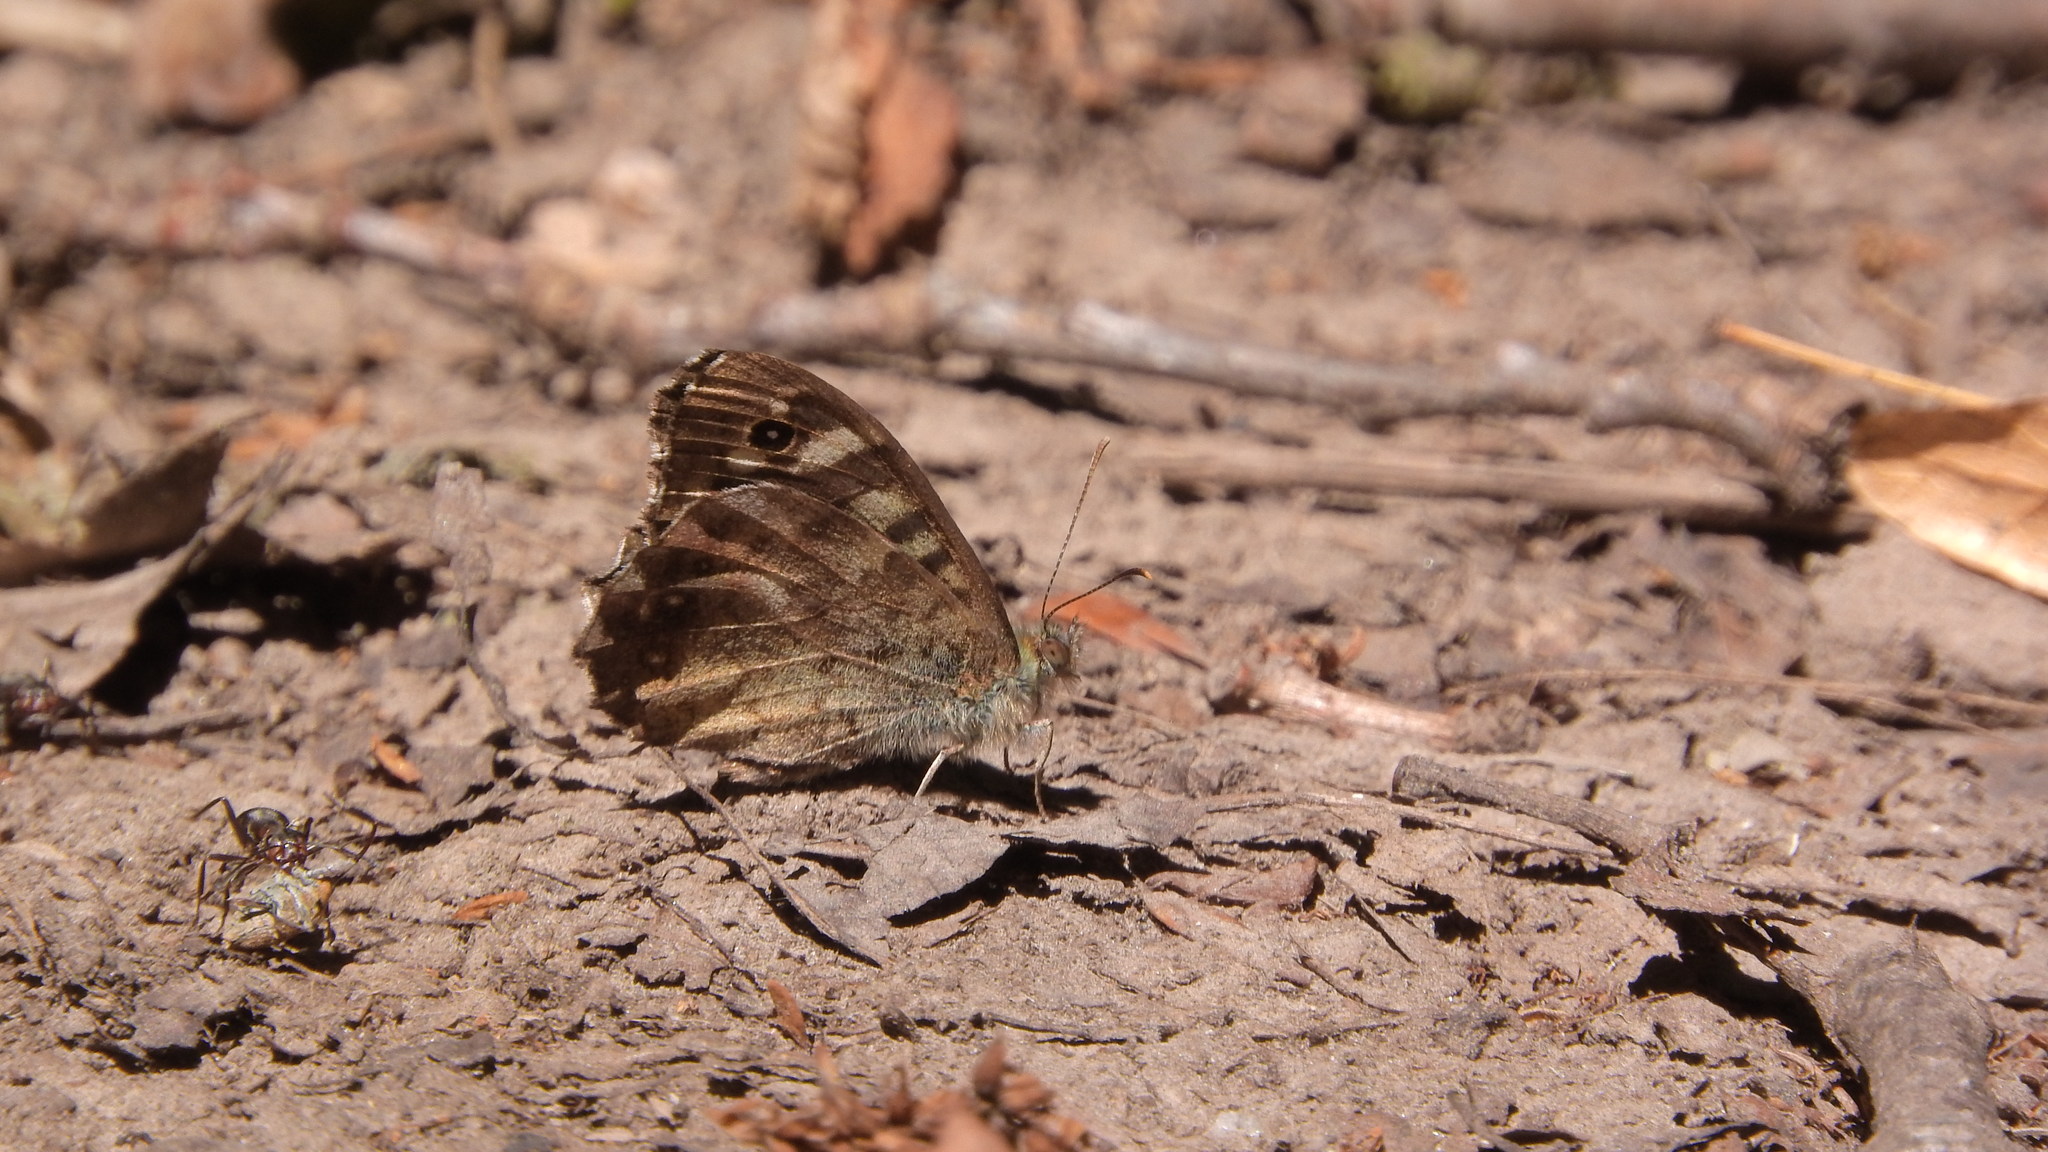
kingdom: Animalia
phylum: Arthropoda
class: Insecta
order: Lepidoptera
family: Nymphalidae
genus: Pararge
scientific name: Pararge aegeria
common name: Speckled wood
